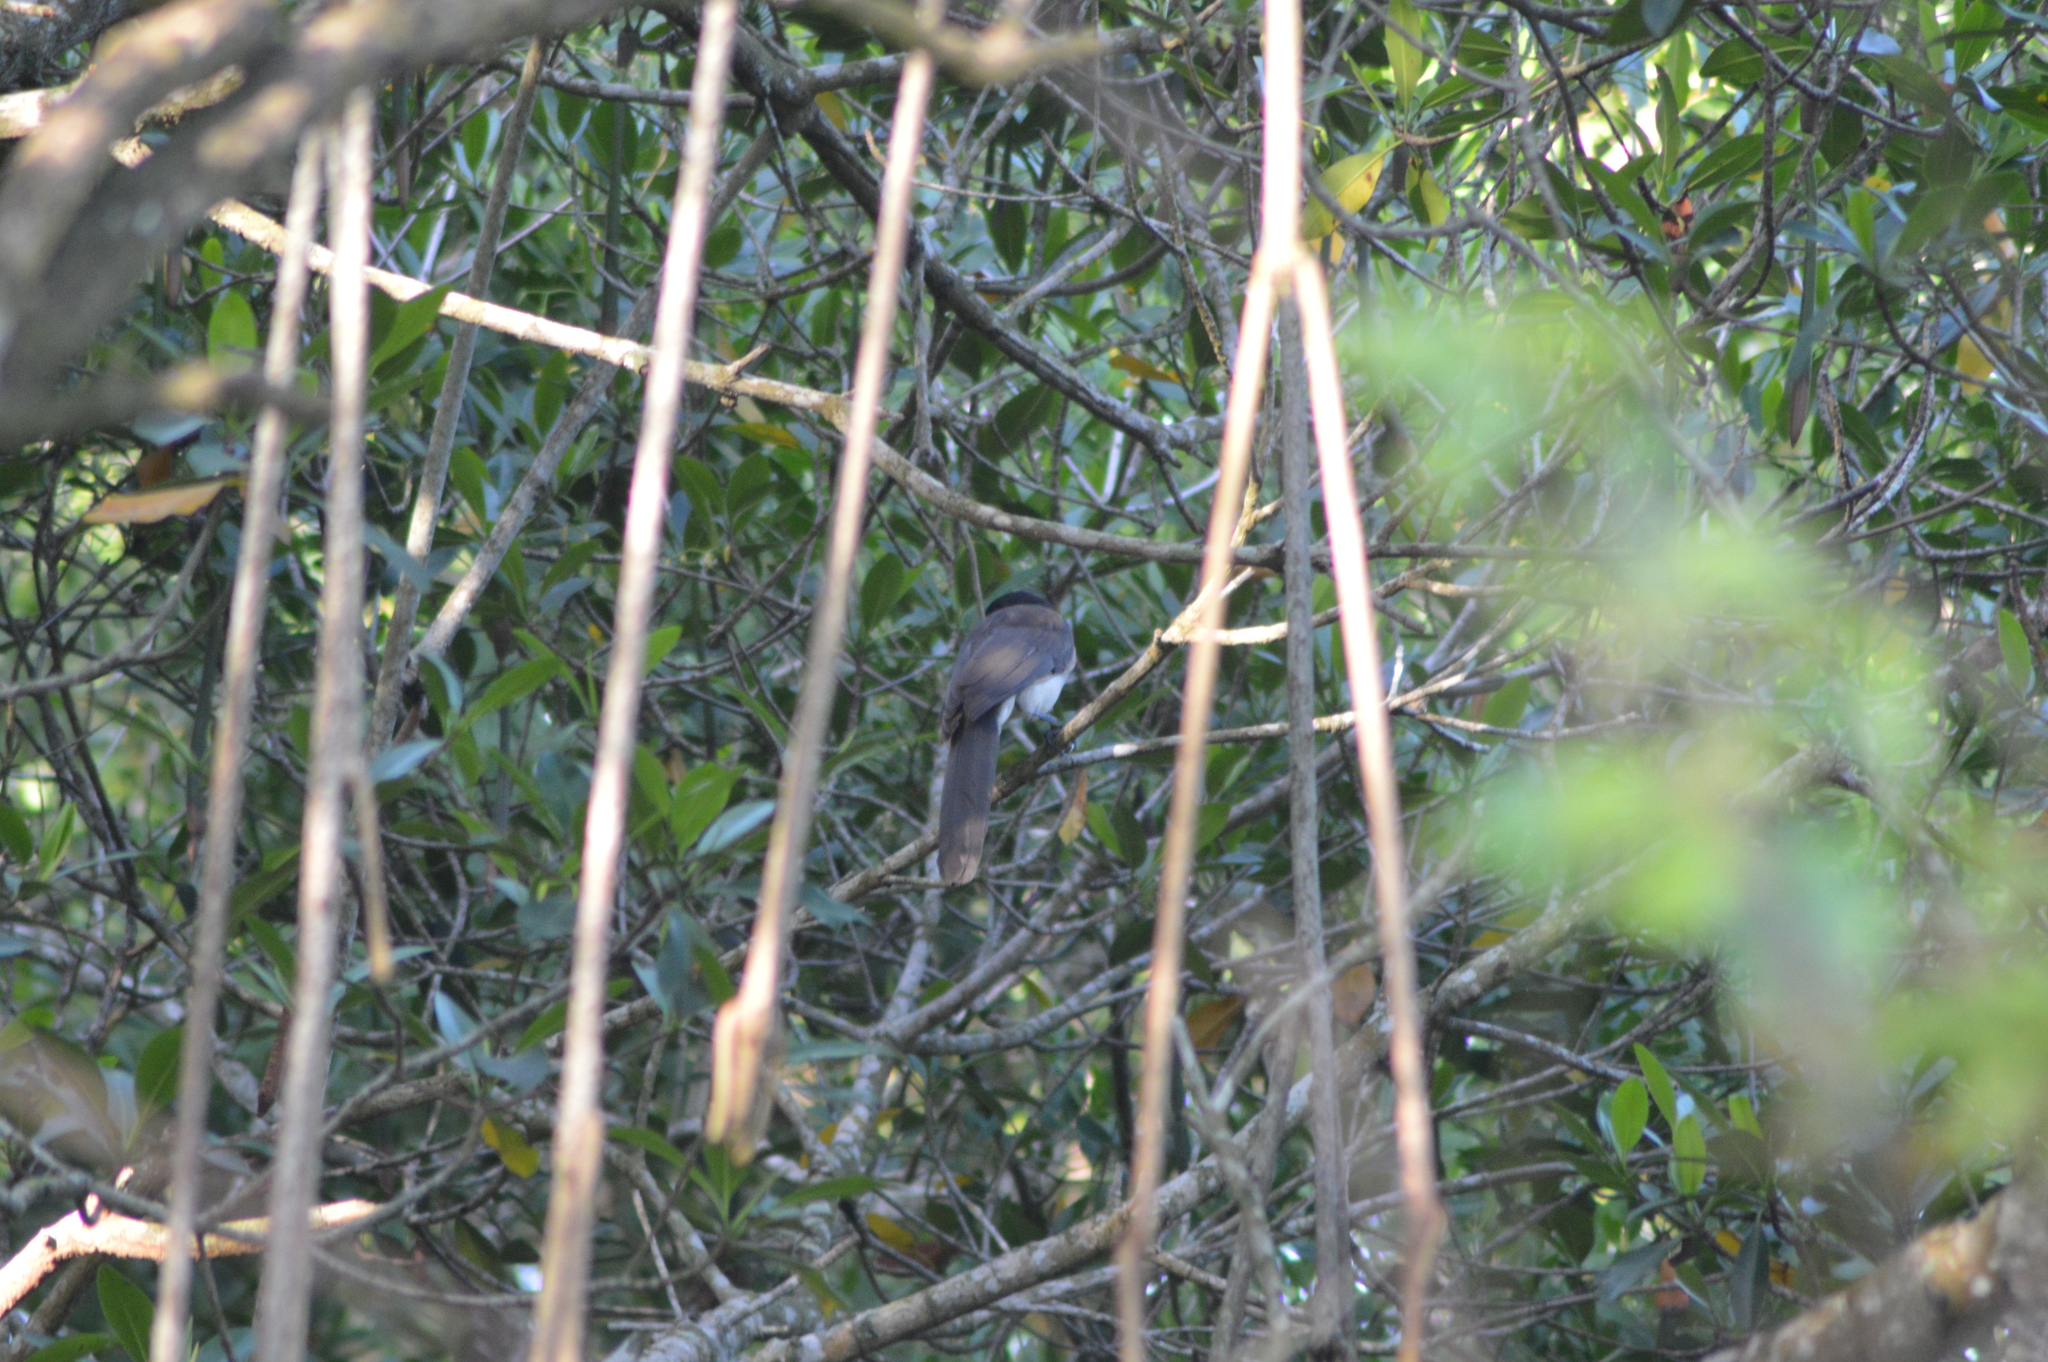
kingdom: Animalia
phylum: Chordata
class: Aves
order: Passeriformes
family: Corvidae
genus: Psilorhinus
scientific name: Psilorhinus morio
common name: Brown jay
